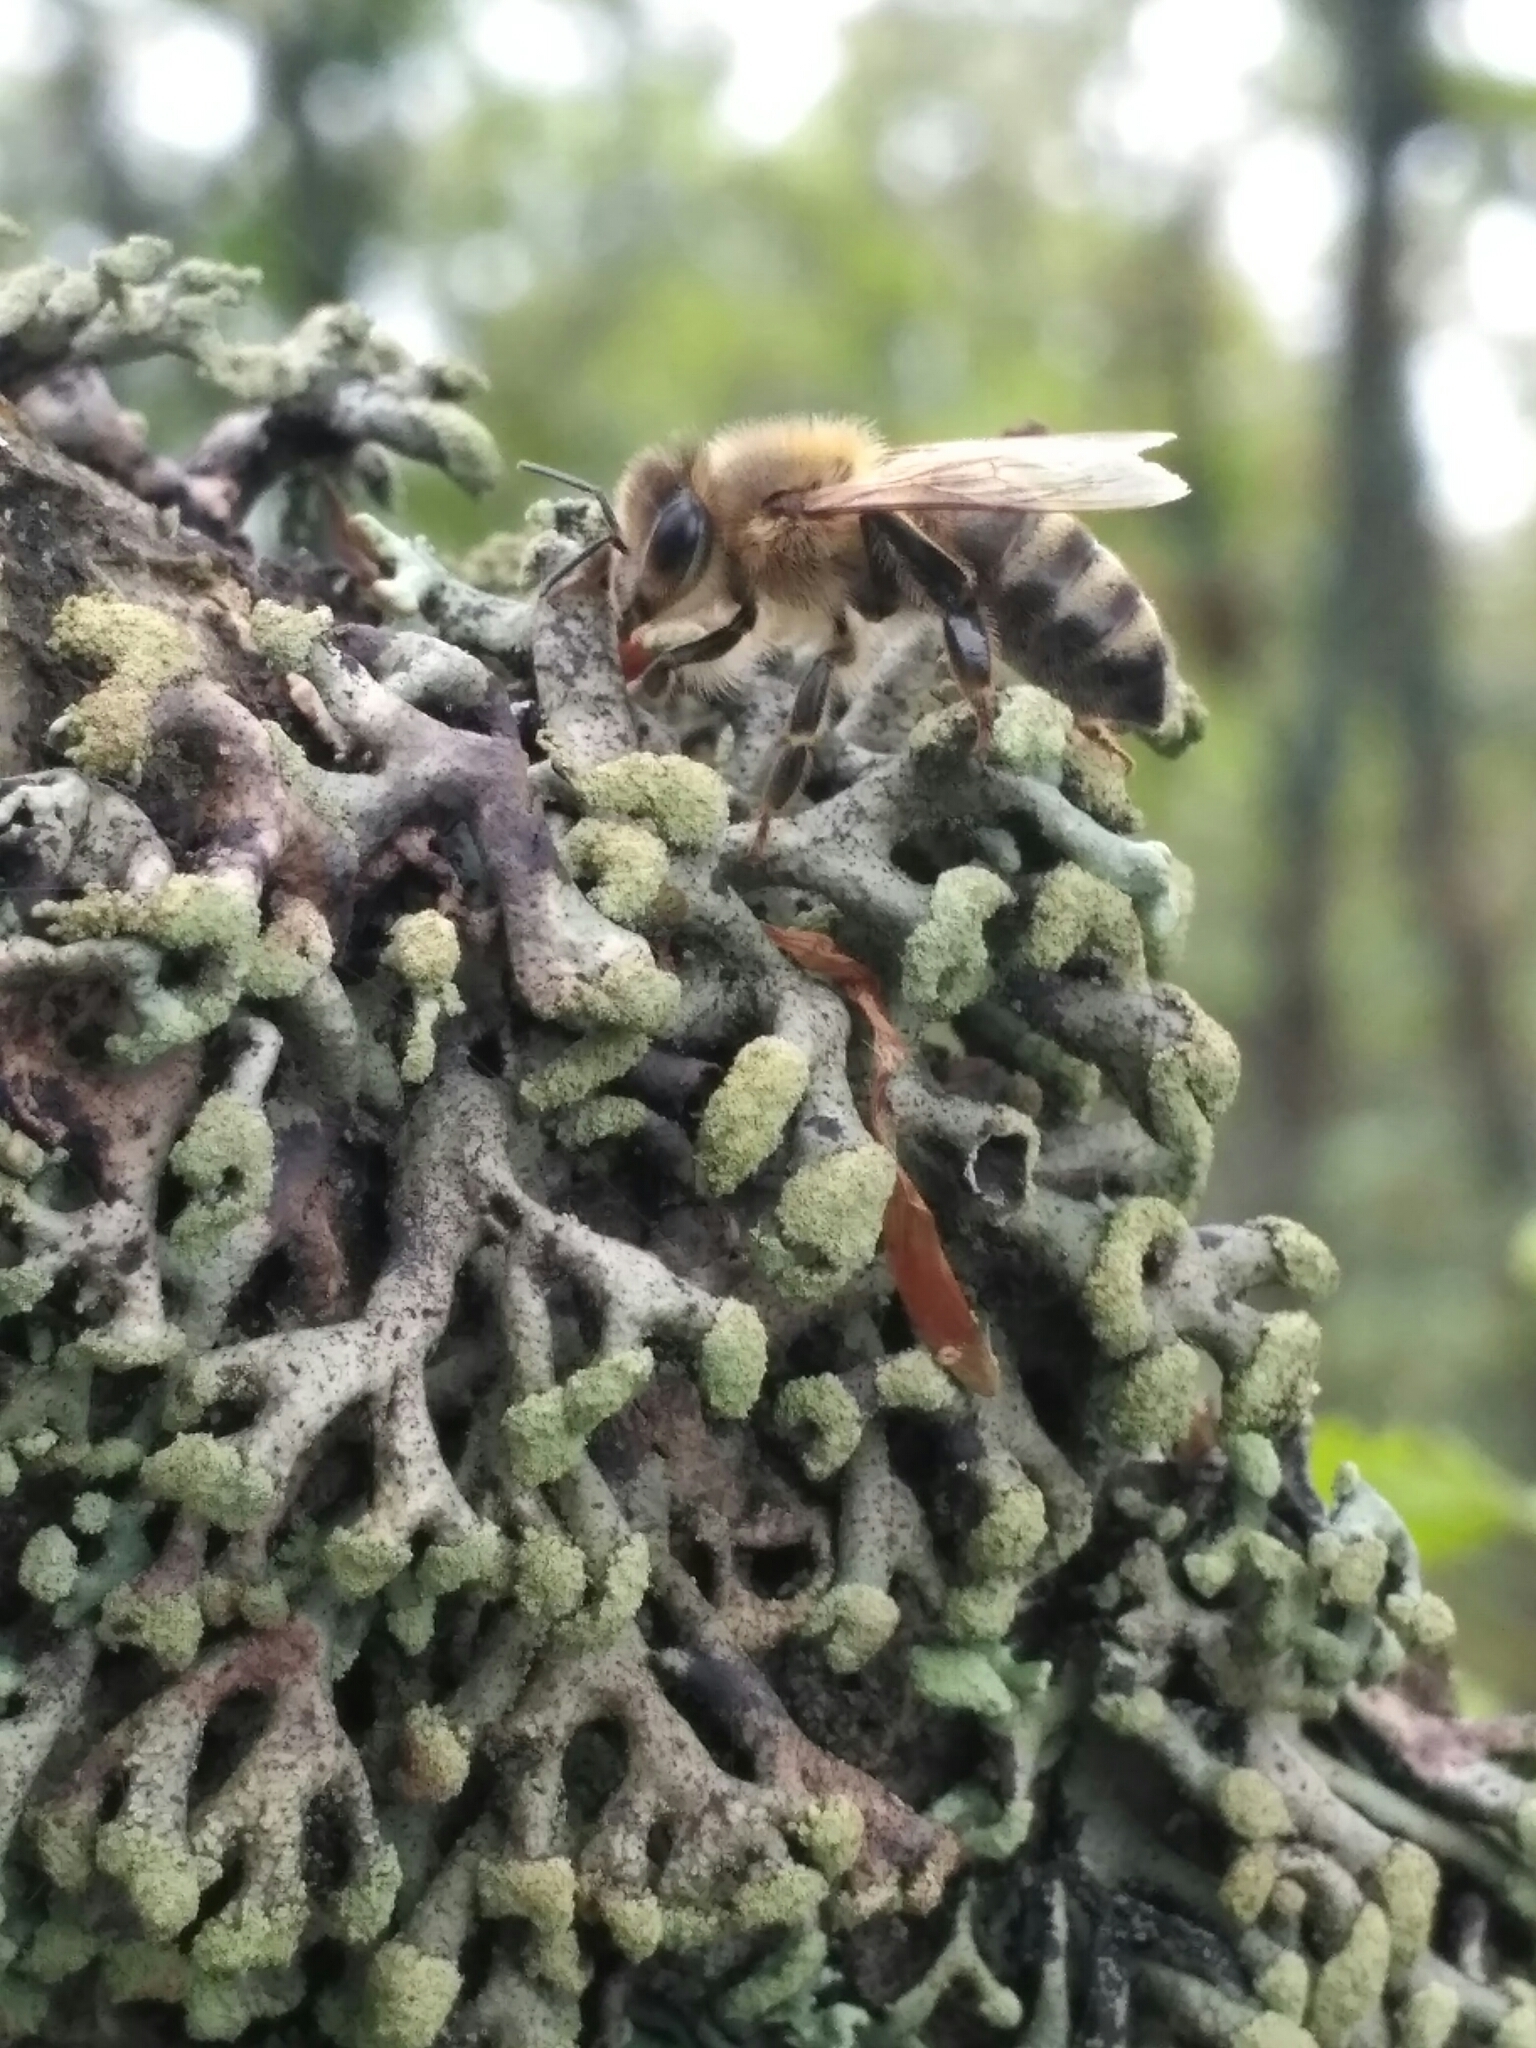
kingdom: Animalia
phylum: Arthropoda
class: Insecta
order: Hymenoptera
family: Apidae
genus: Apis
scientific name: Apis mellifera
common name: Honey bee
